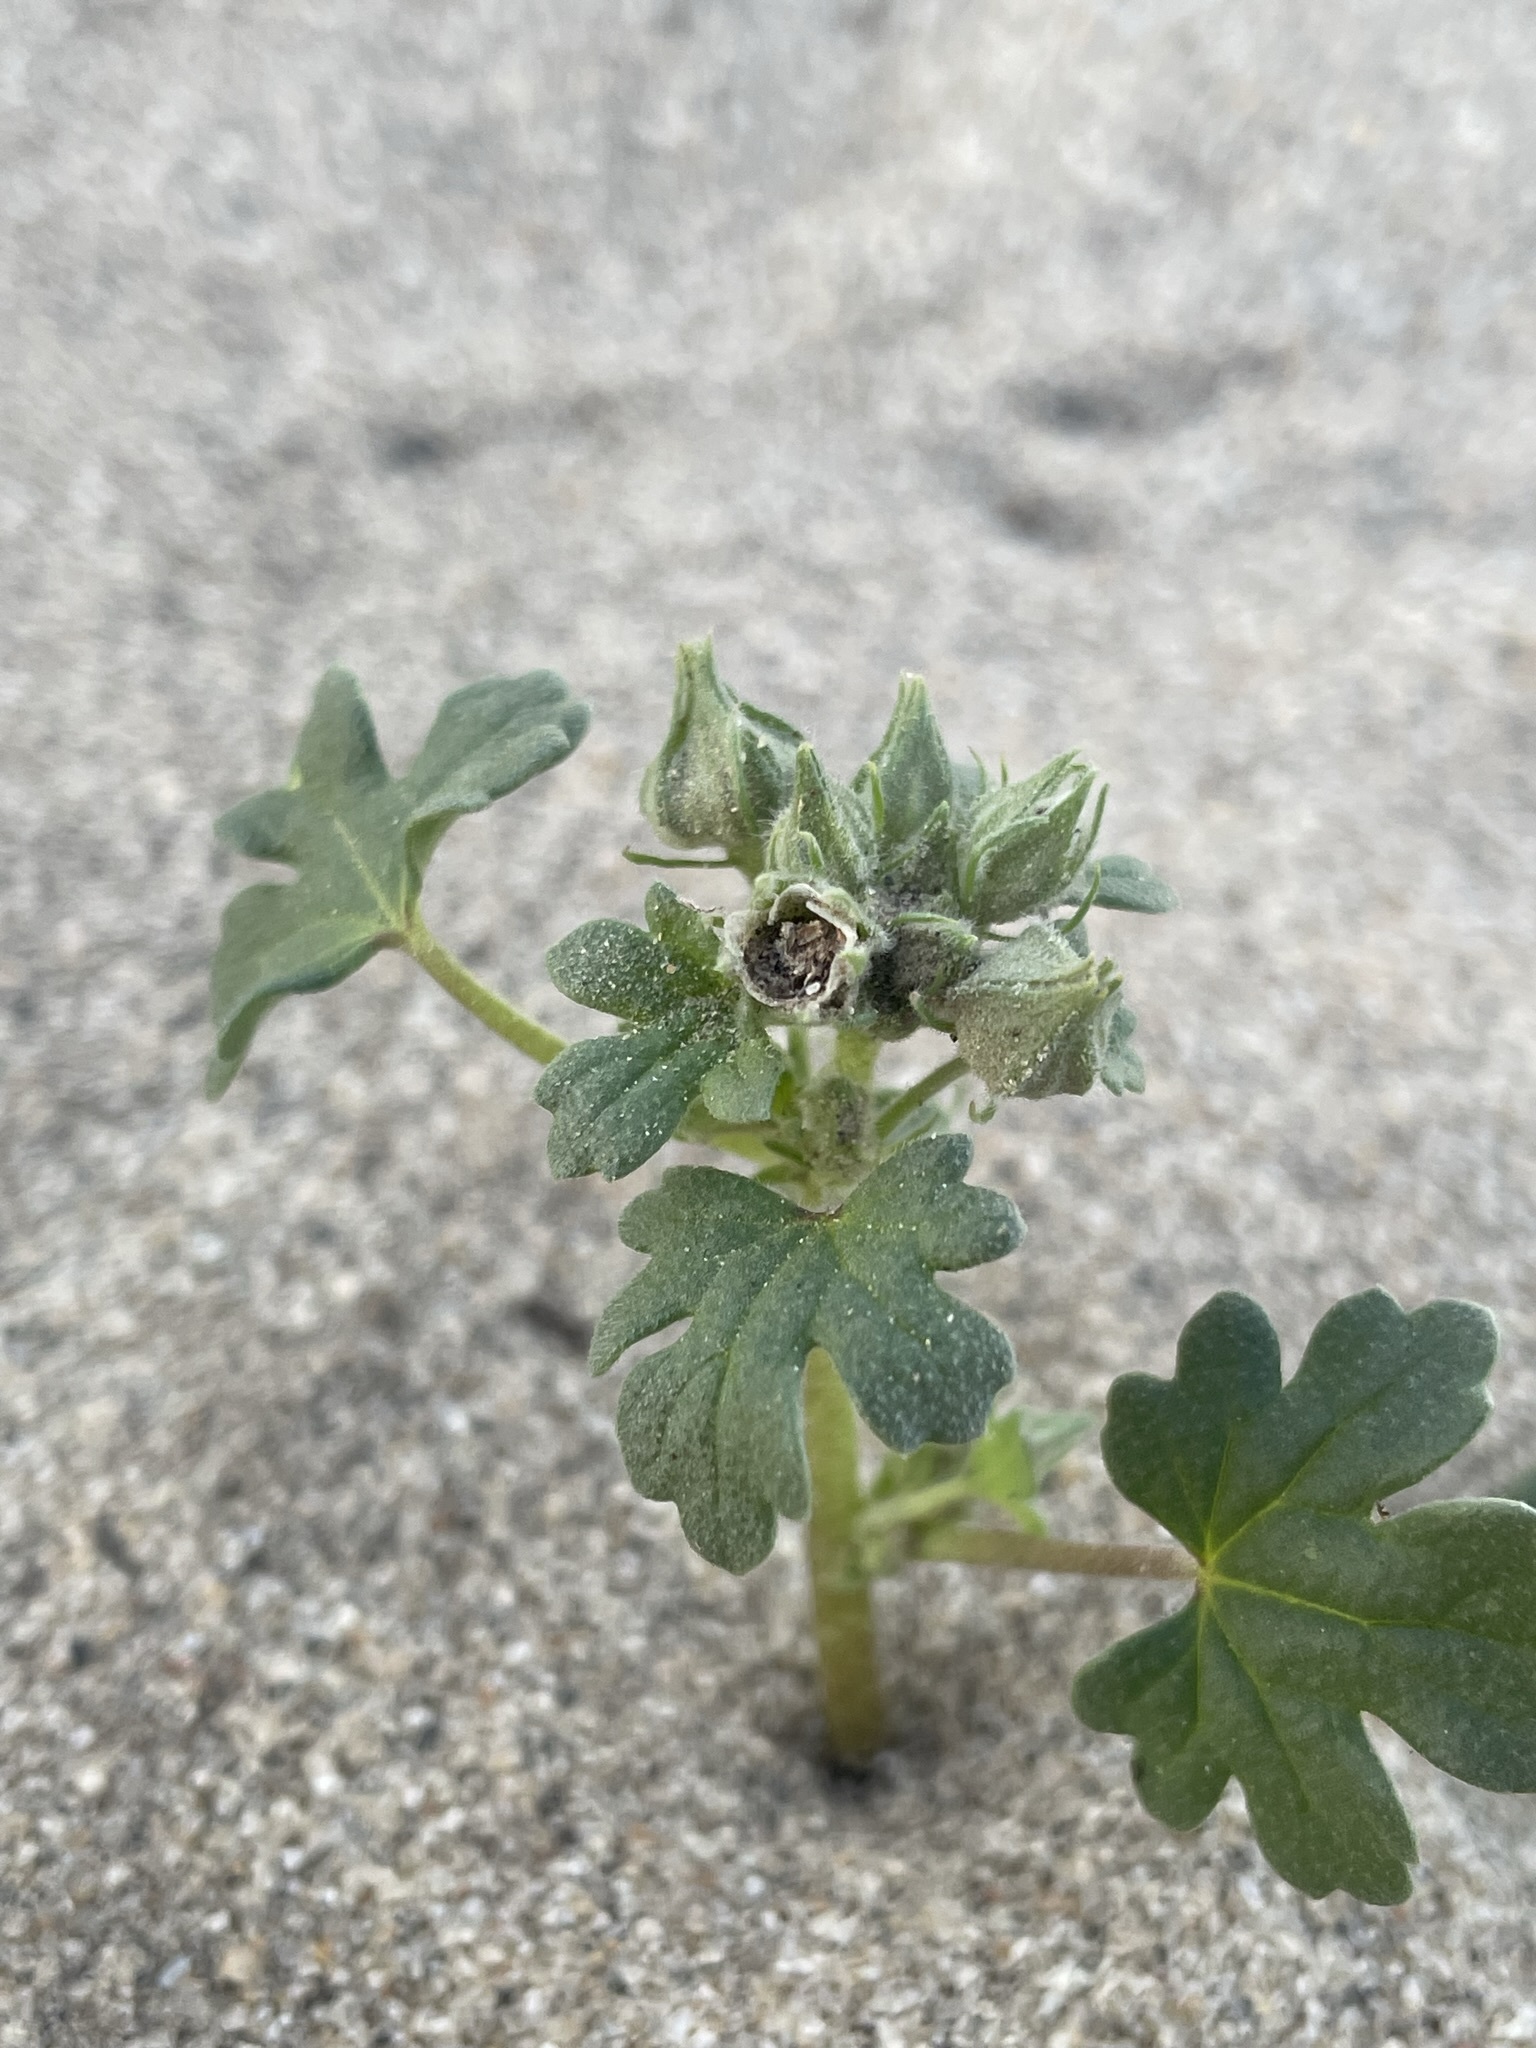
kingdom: Plantae
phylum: Tracheophyta
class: Magnoliopsida
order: Malvales
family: Malvaceae
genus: Eremalche
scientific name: Eremalche exilis
